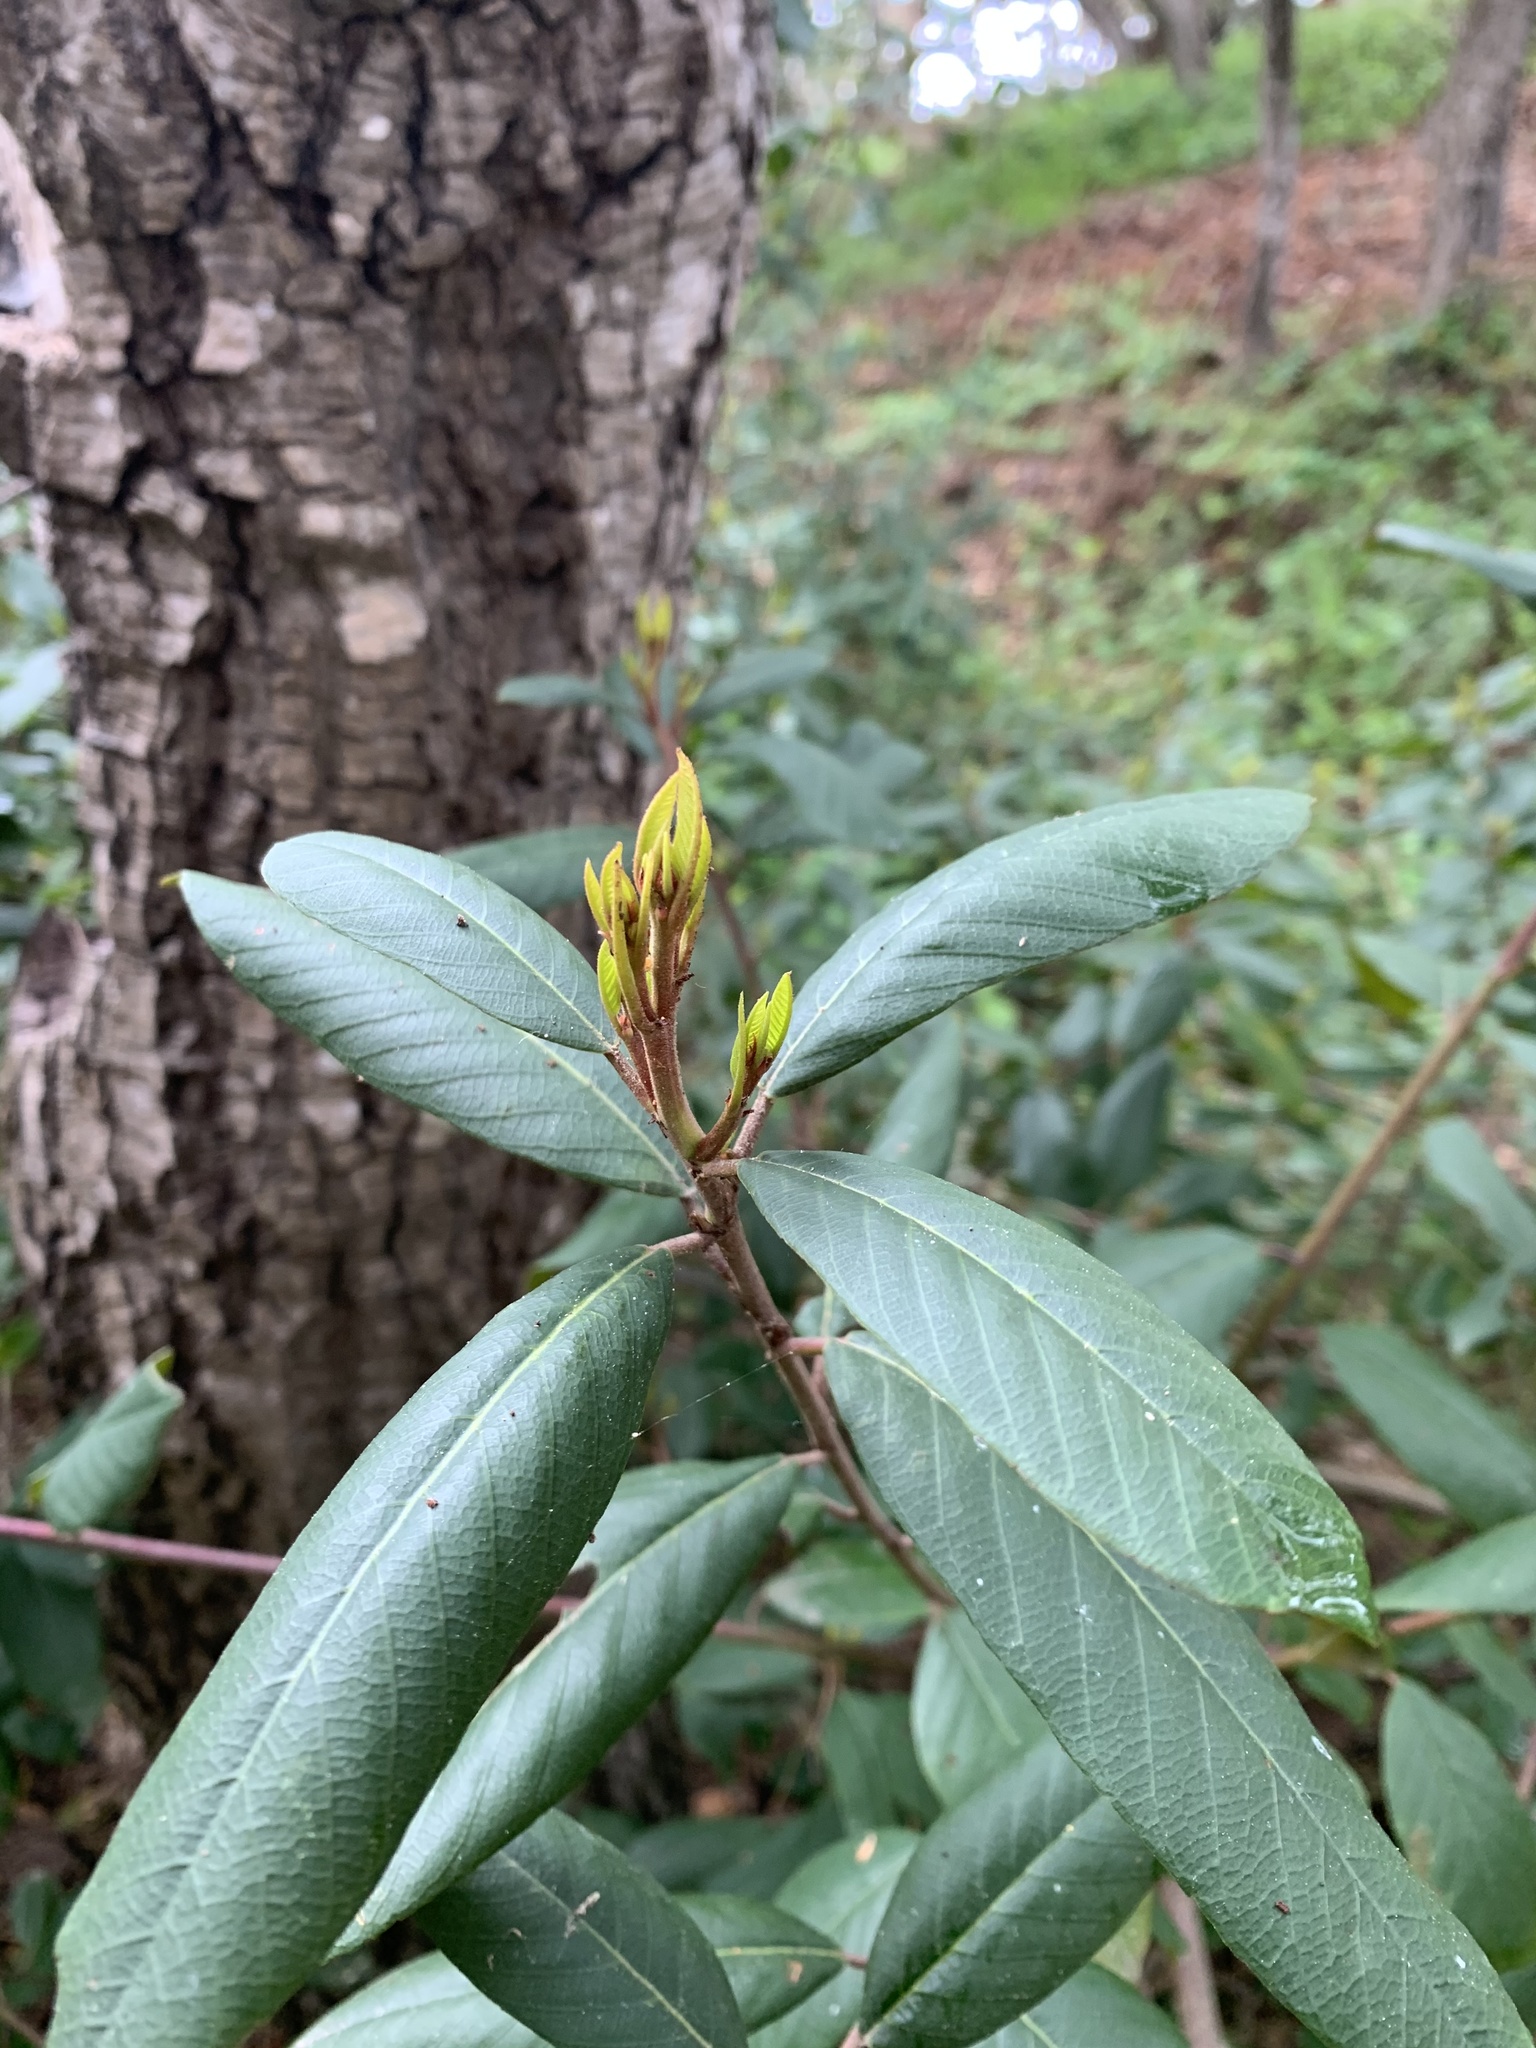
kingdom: Plantae
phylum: Tracheophyta
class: Magnoliopsida
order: Rosales
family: Rhamnaceae
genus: Frangula
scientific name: Frangula californica
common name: California buckthorn
